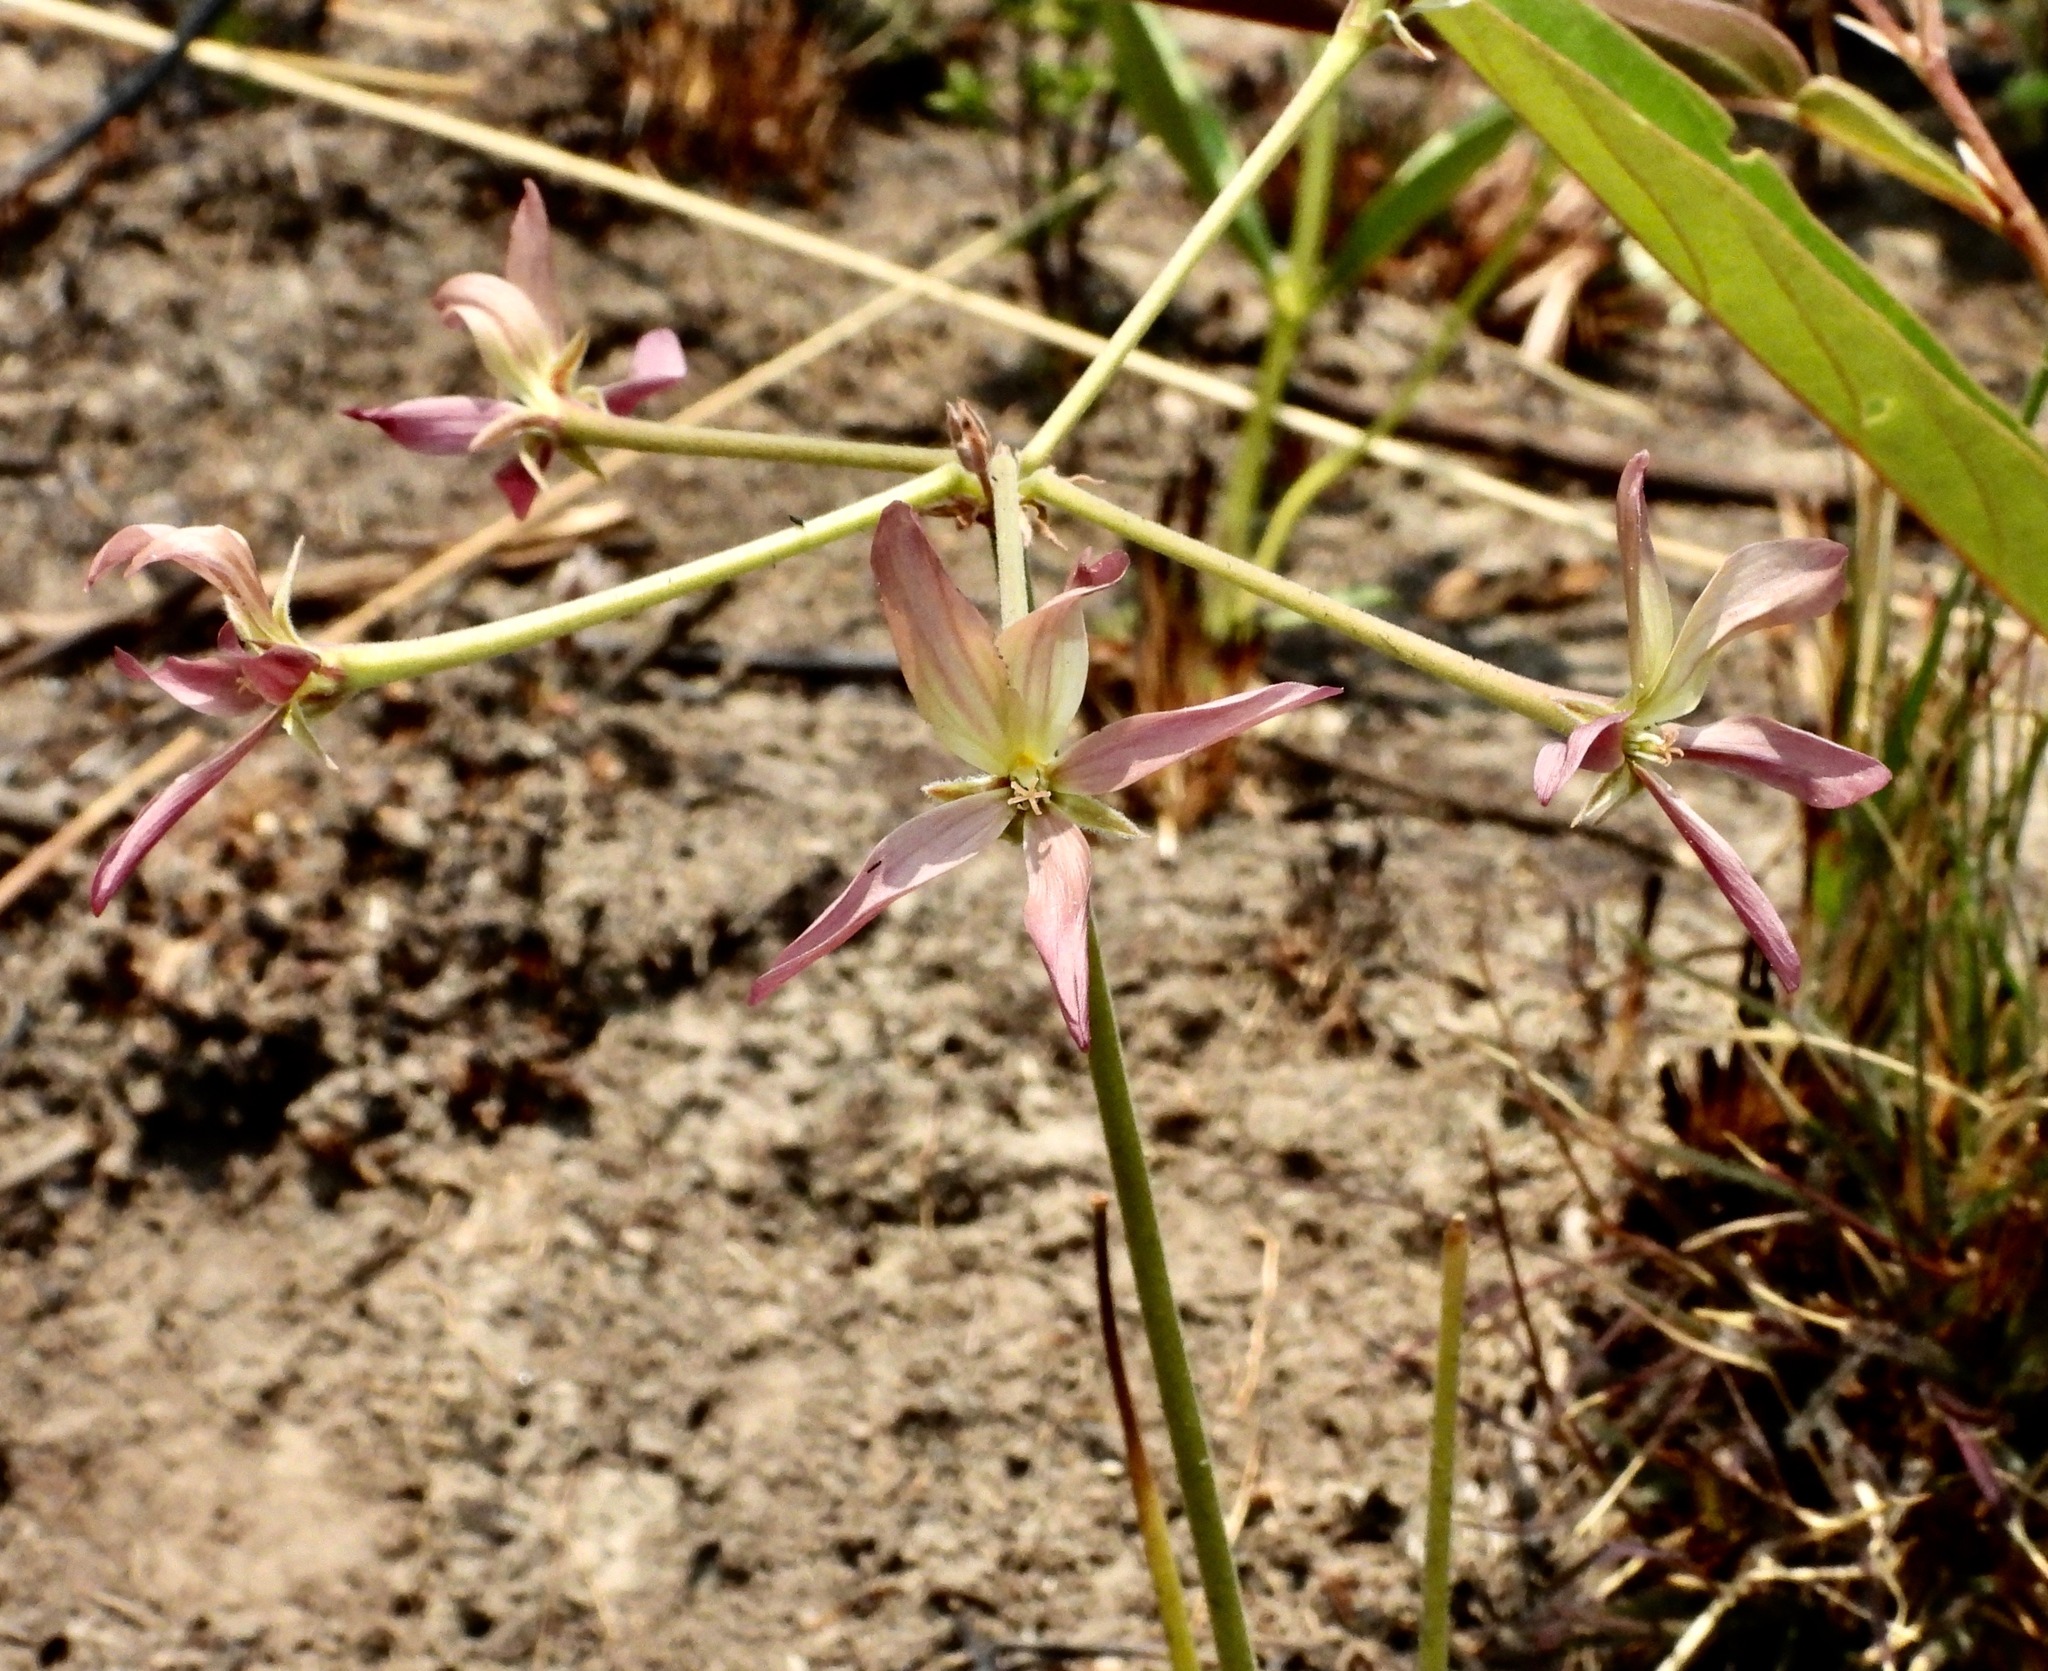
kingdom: Plantae
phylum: Tracheophyta
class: Magnoliopsida
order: Geraniales
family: Geraniaceae
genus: Pelargonium
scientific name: Pelargonium luridum
